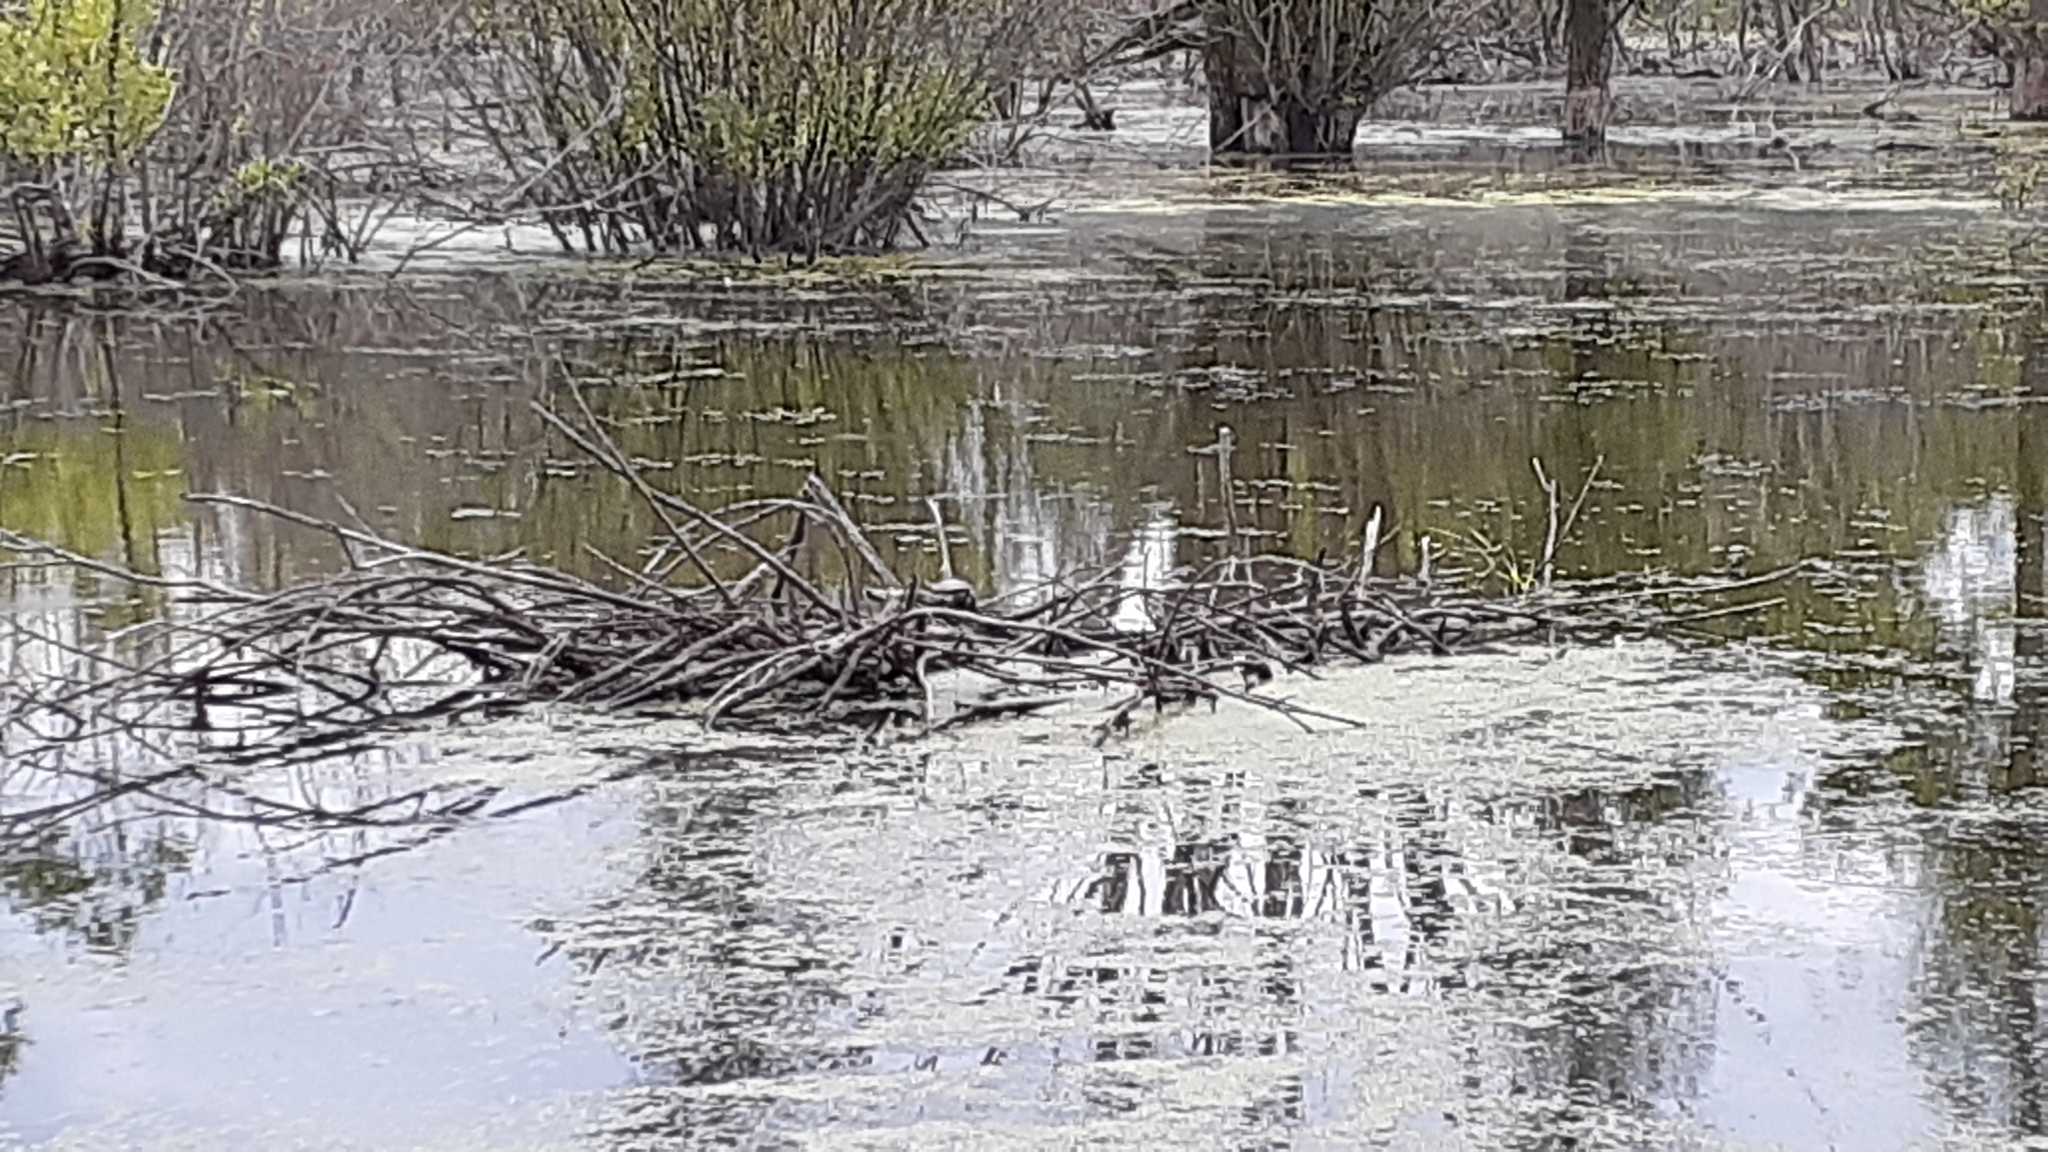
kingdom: Animalia
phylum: Chordata
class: Testudines
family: Emydidae
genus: Chrysemys
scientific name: Chrysemys picta
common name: Painted turtle
